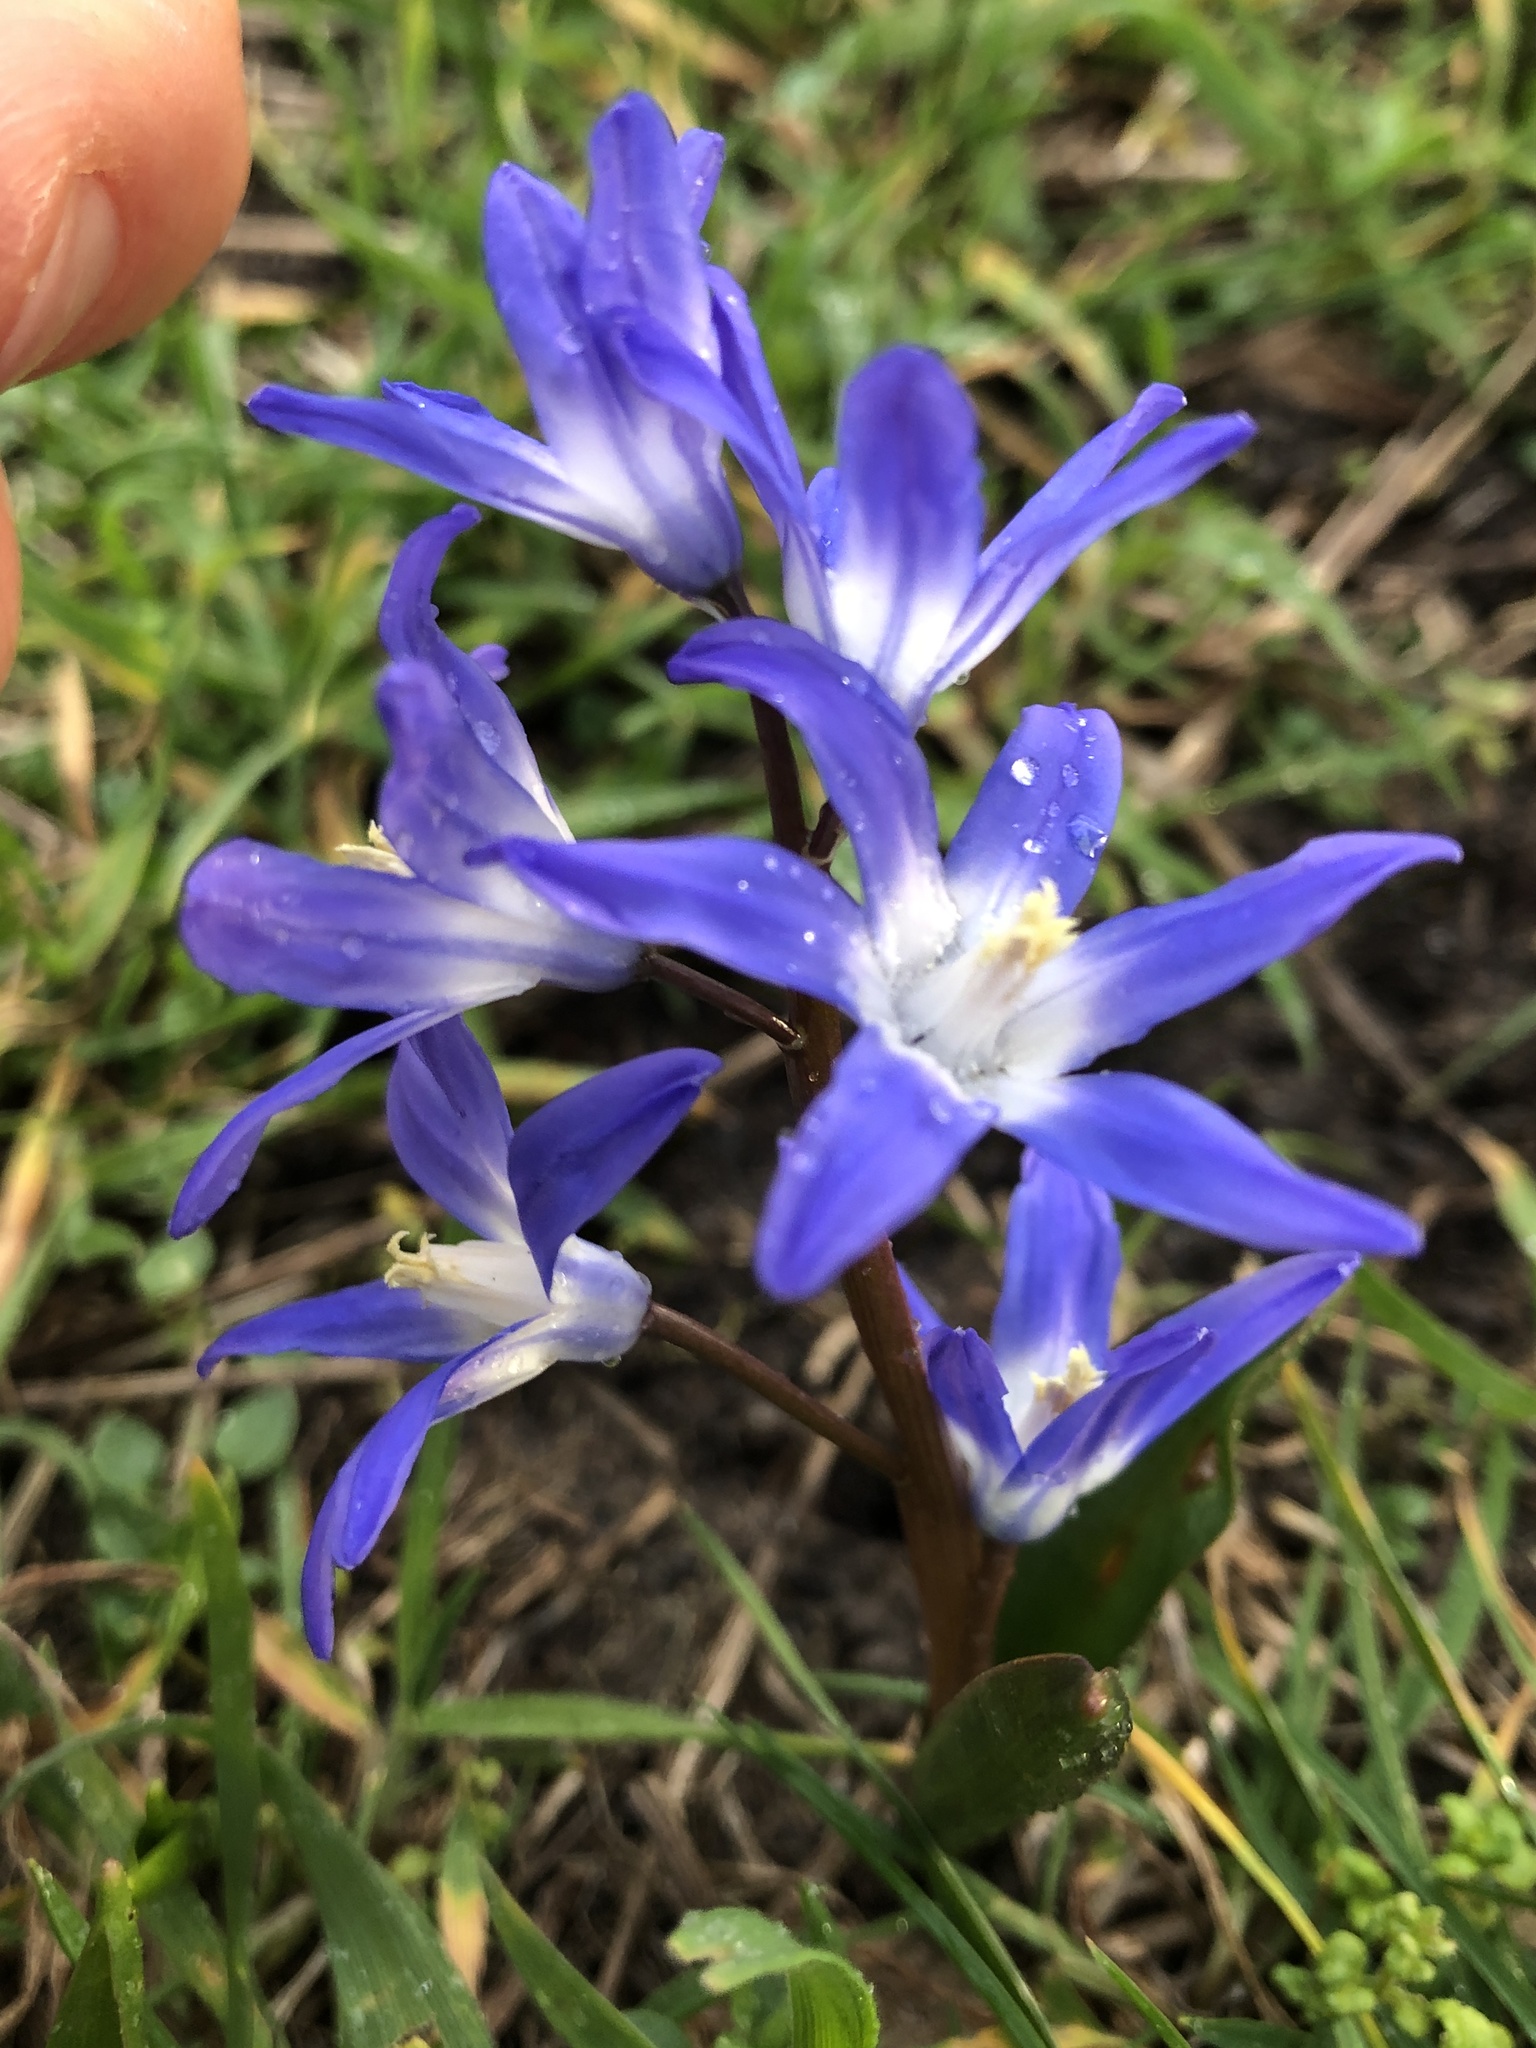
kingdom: Plantae
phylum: Tracheophyta
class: Liliopsida
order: Asparagales
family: Asparagaceae
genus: Scilla
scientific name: Scilla forbesii
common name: Glory-of-the-snow
